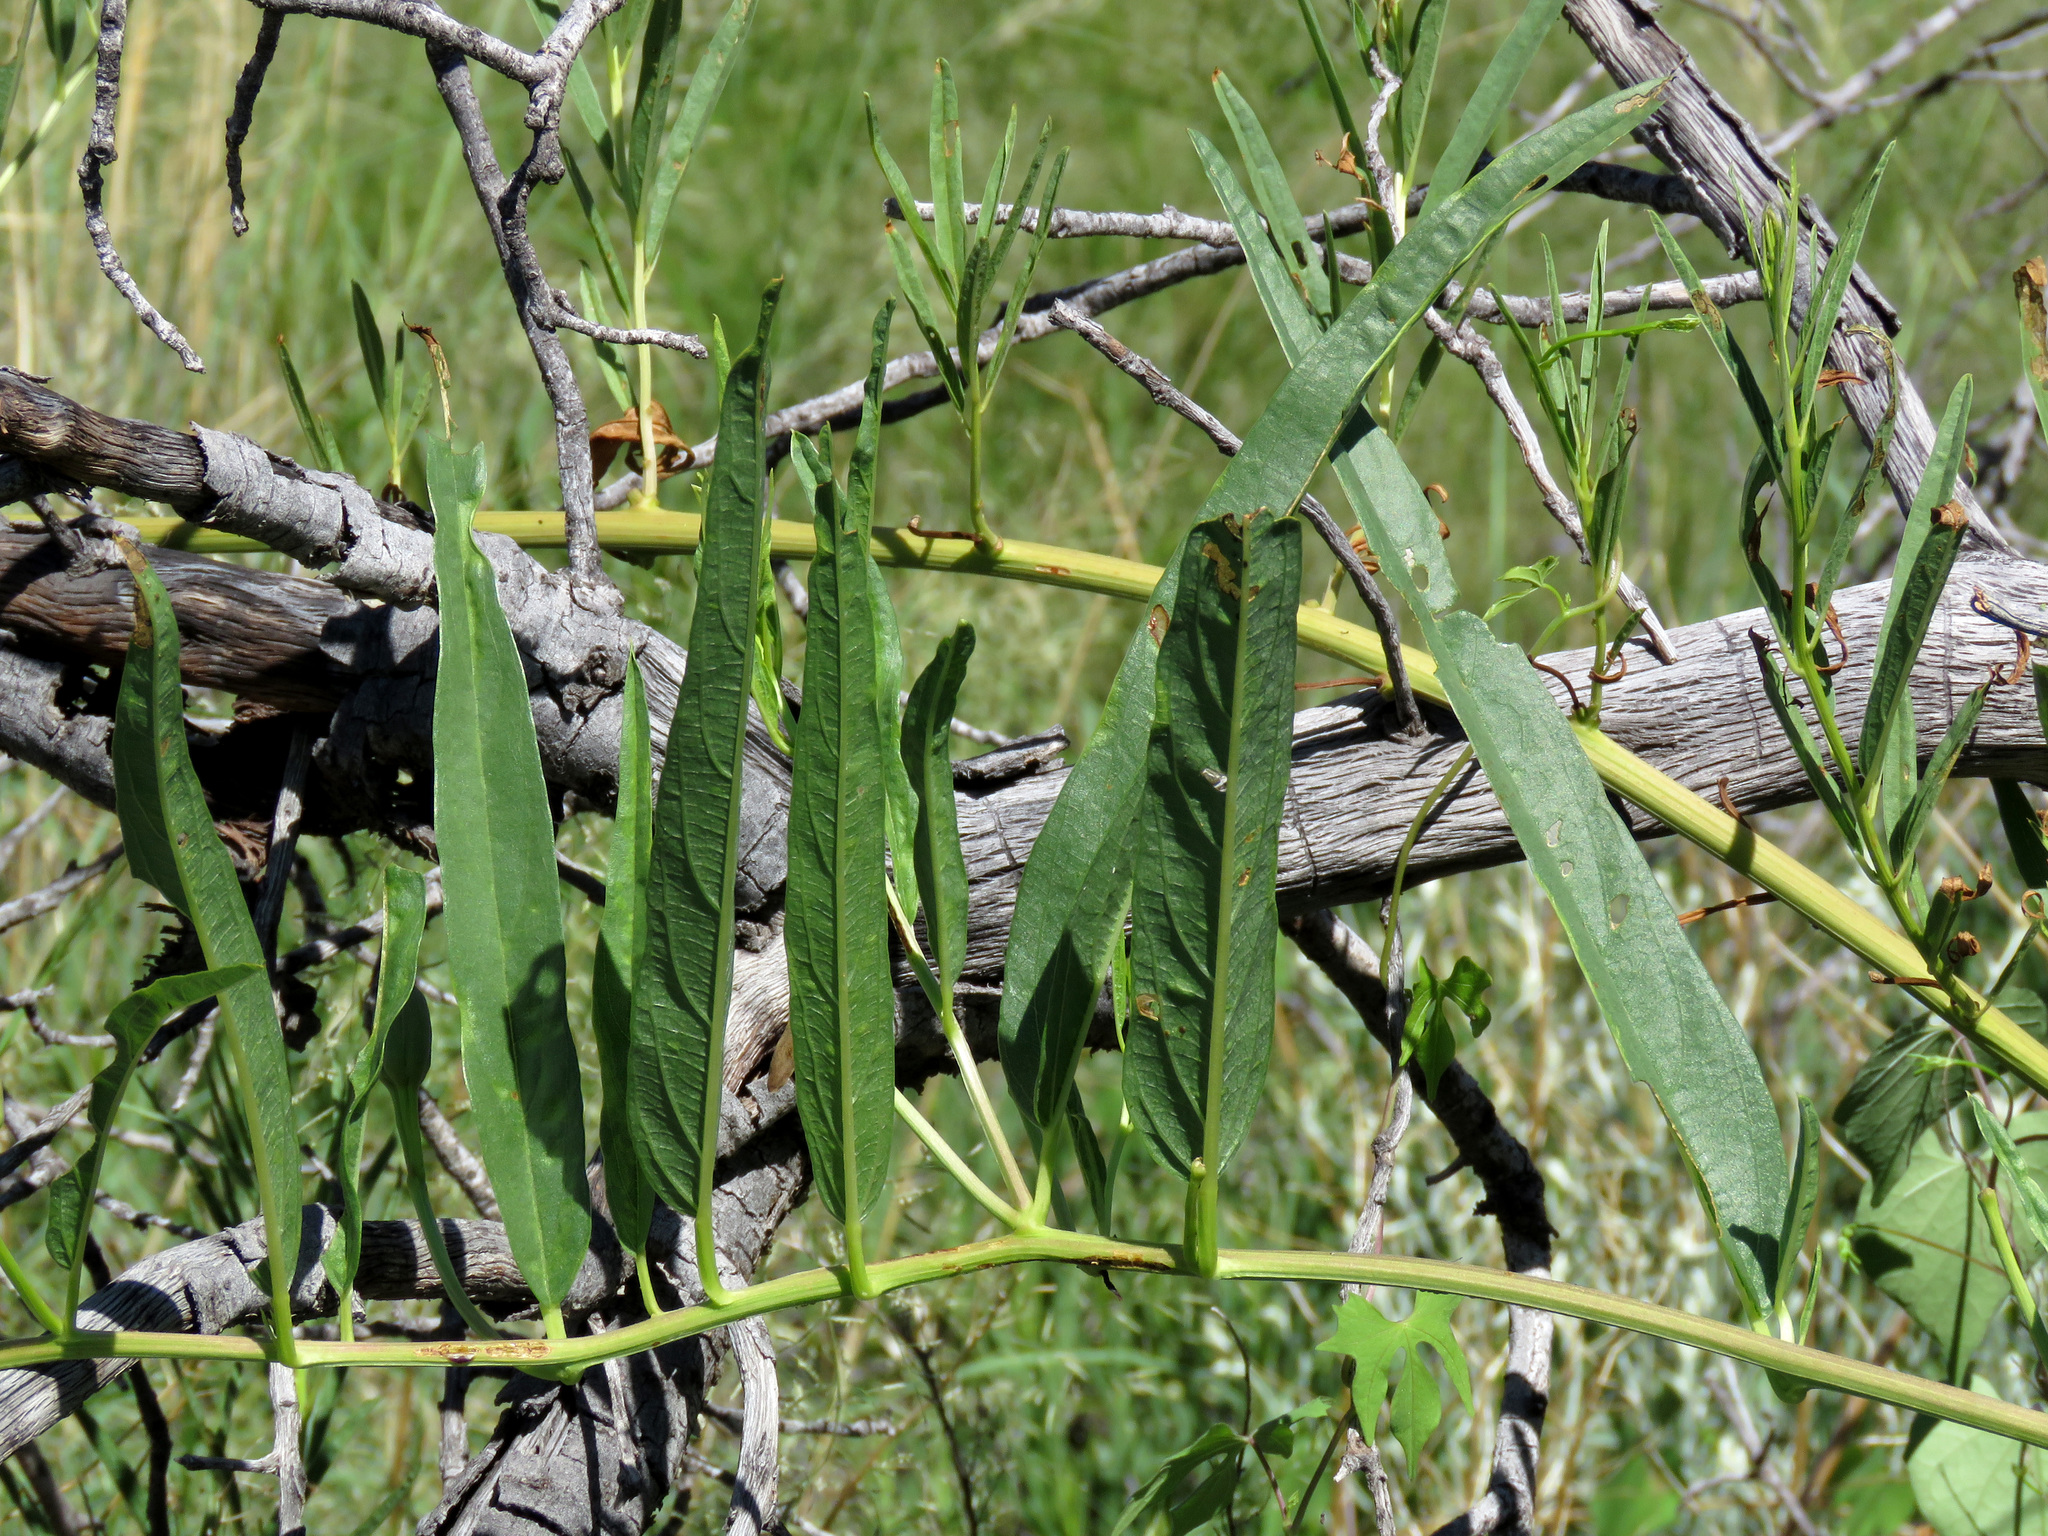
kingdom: Plantae
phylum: Tracheophyta
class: Magnoliopsida
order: Solanales
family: Convolvulaceae
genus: Ipomoea
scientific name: Ipomoea longifolia
